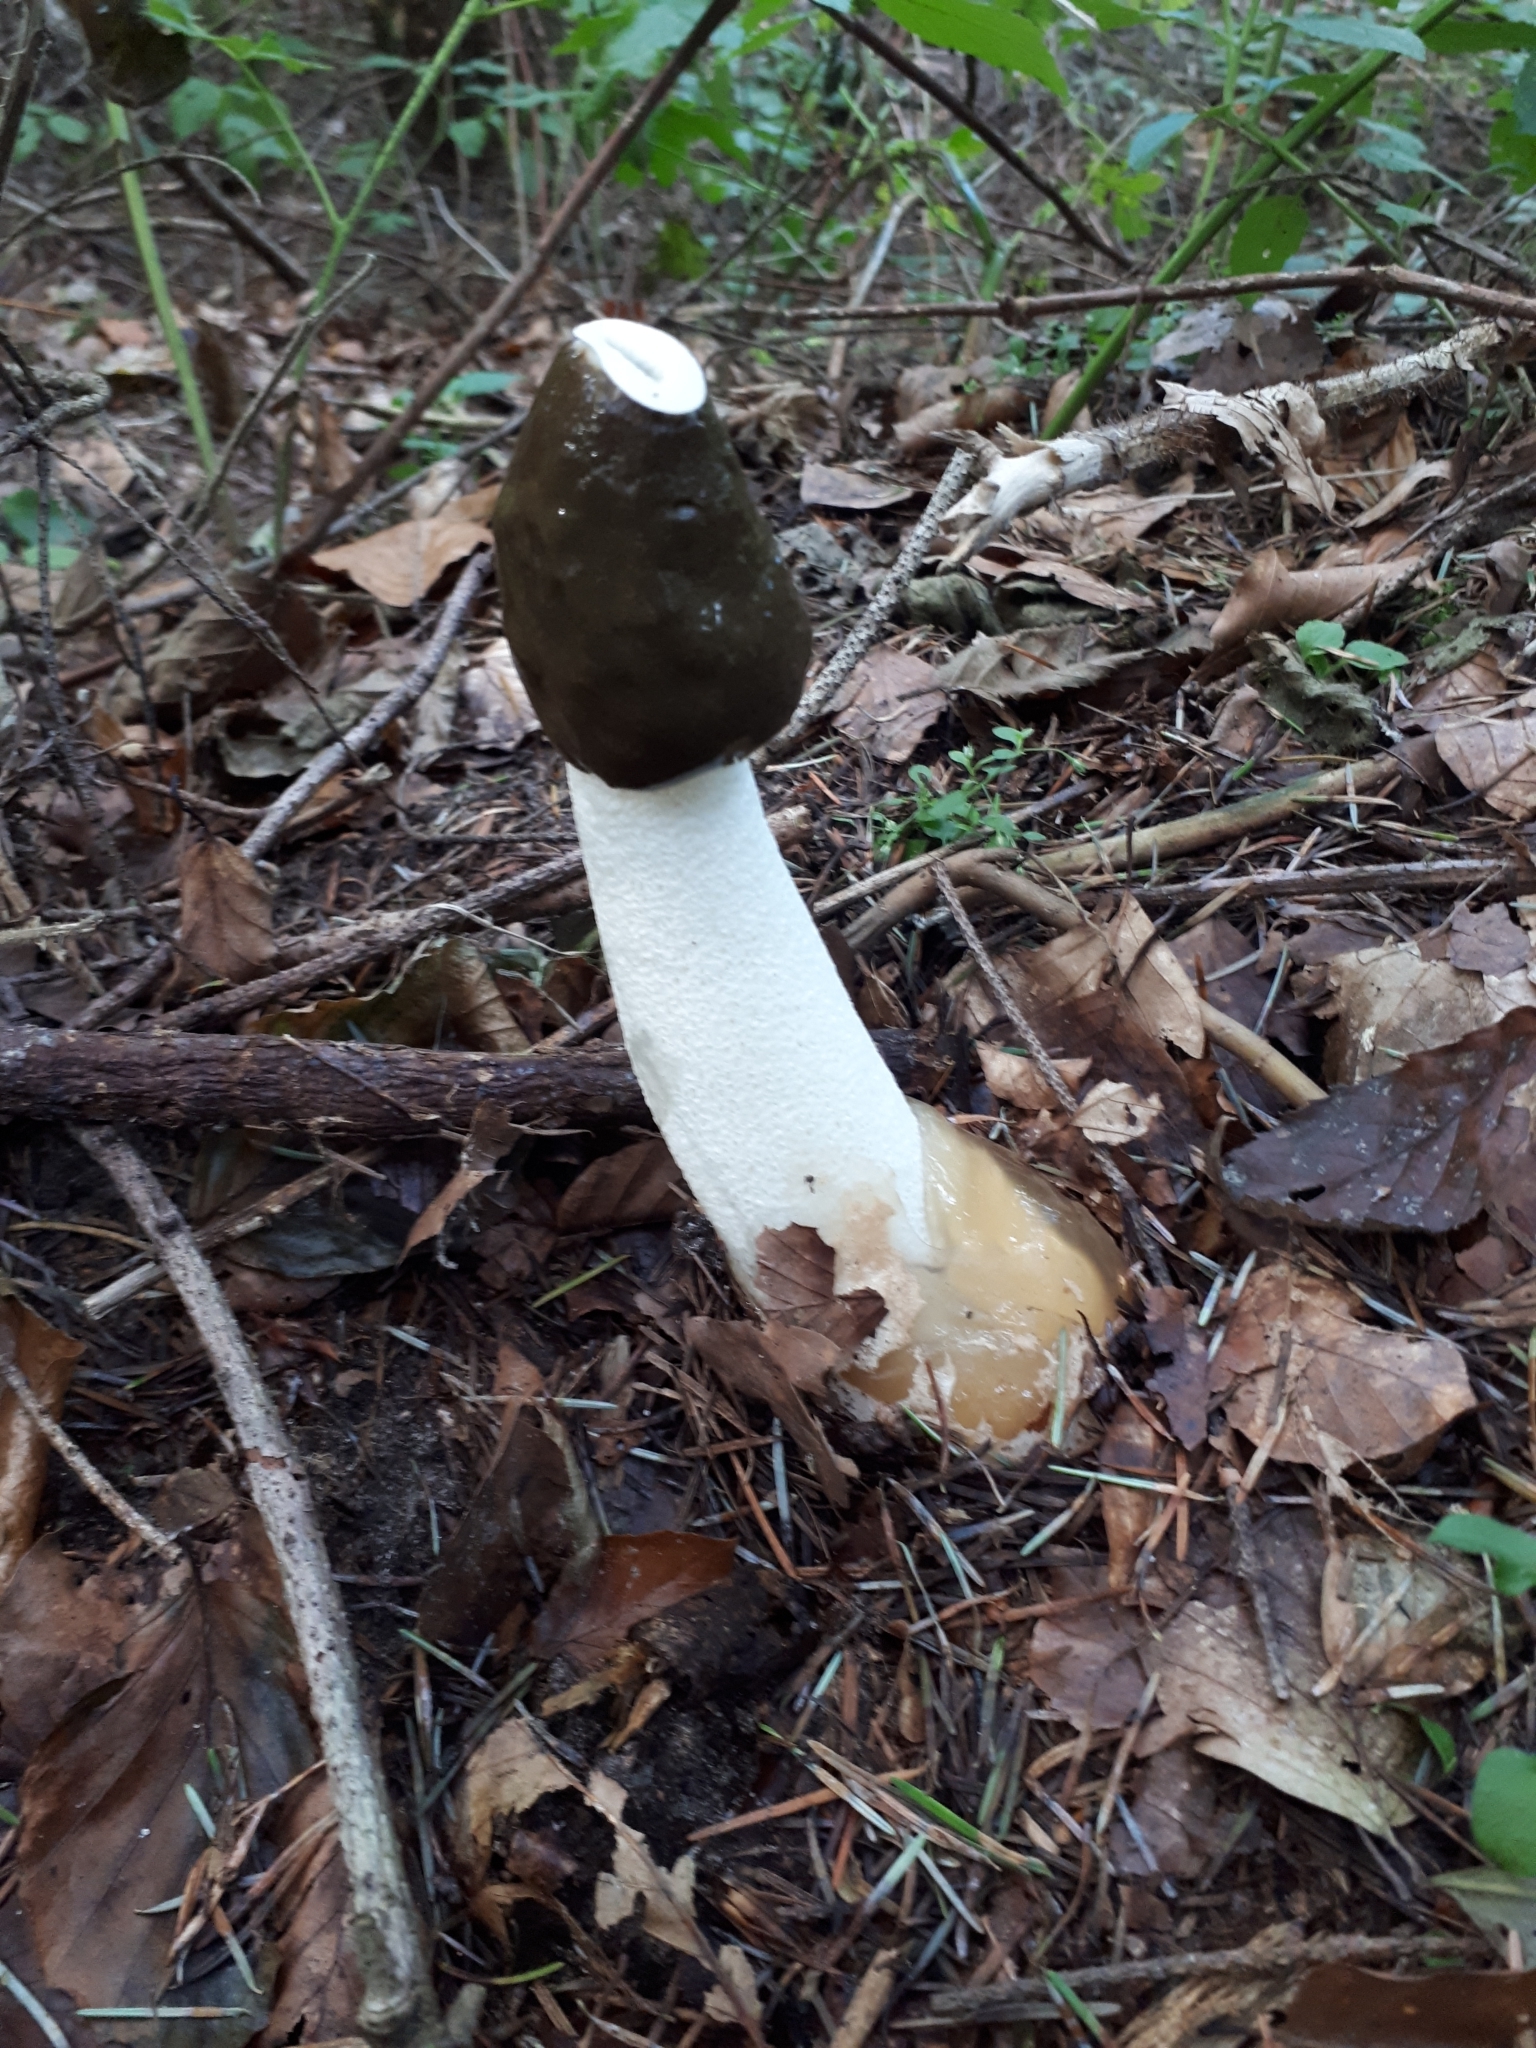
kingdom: Fungi
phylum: Basidiomycota
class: Agaricomycetes
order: Phallales
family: Phallaceae
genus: Phallus
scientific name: Phallus impudicus
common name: Common stinkhorn
